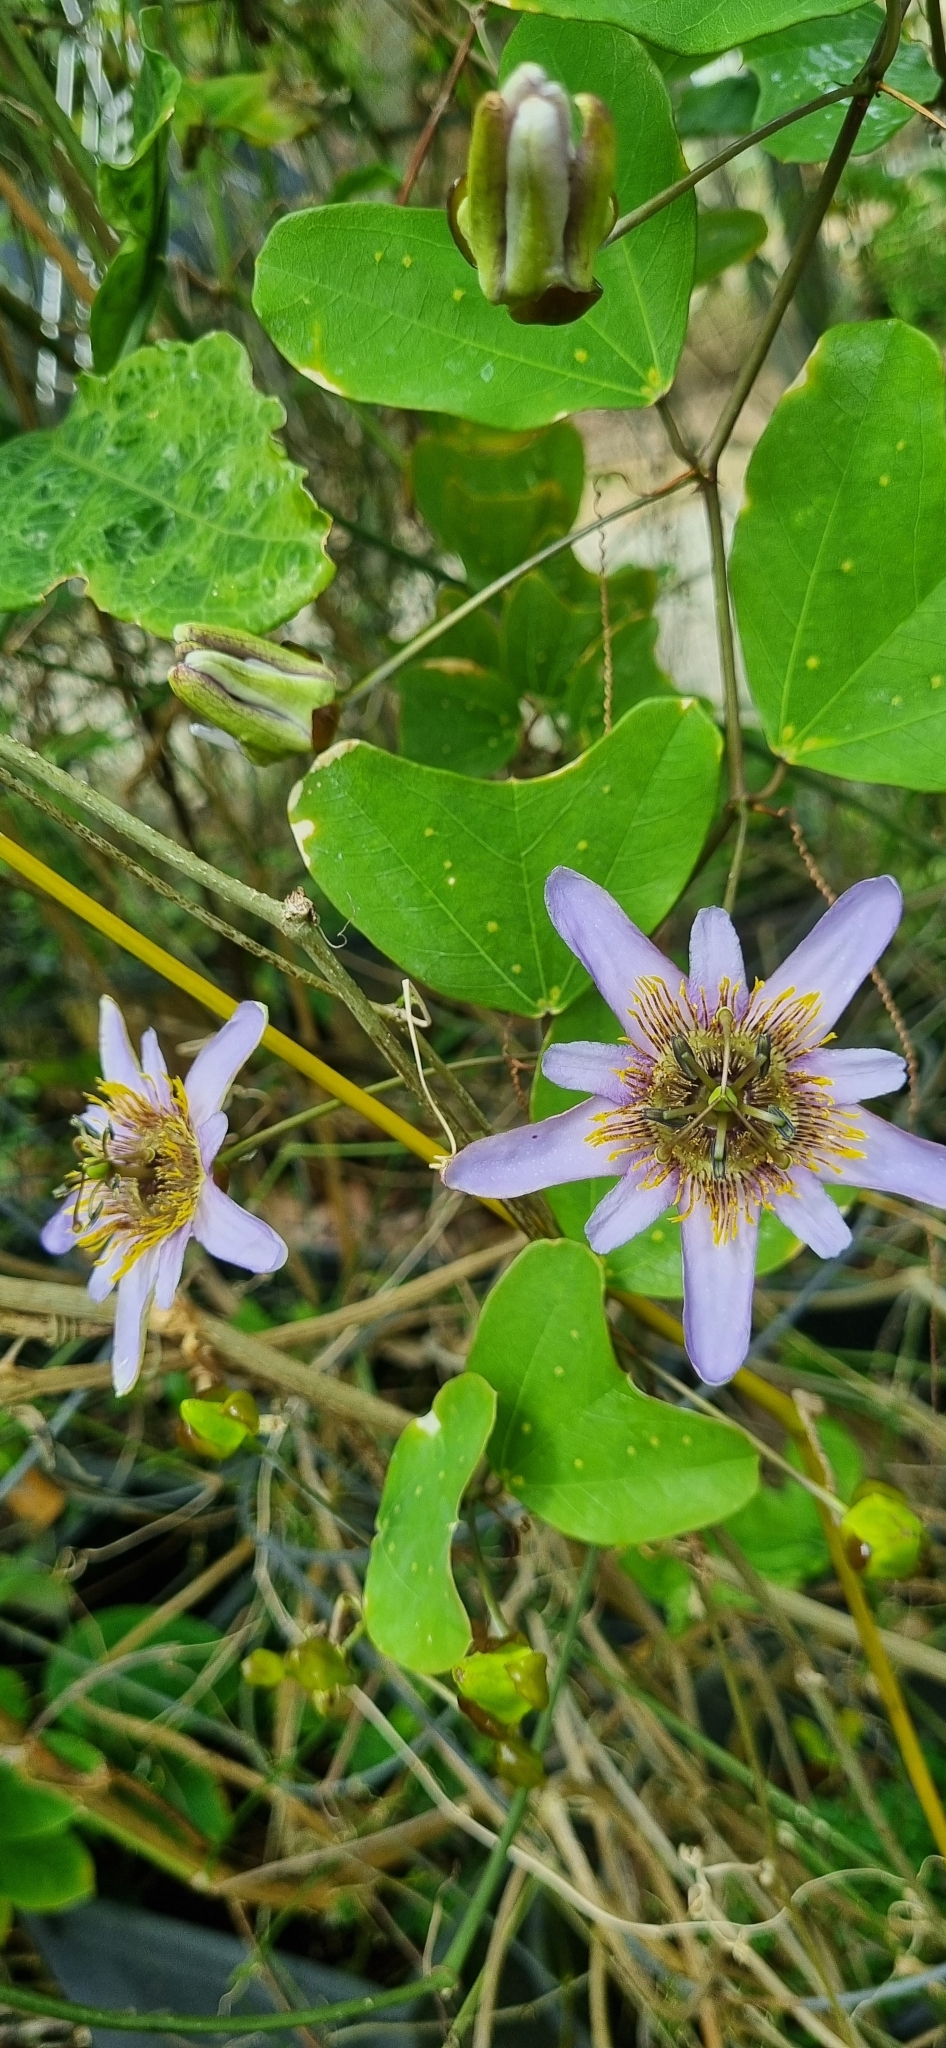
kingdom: Plantae
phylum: Tracheophyta
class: Magnoliopsida
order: Malpighiales
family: Passifloraceae
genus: Passiflora
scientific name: Passiflora bicornis
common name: Wingleaf passionflower
